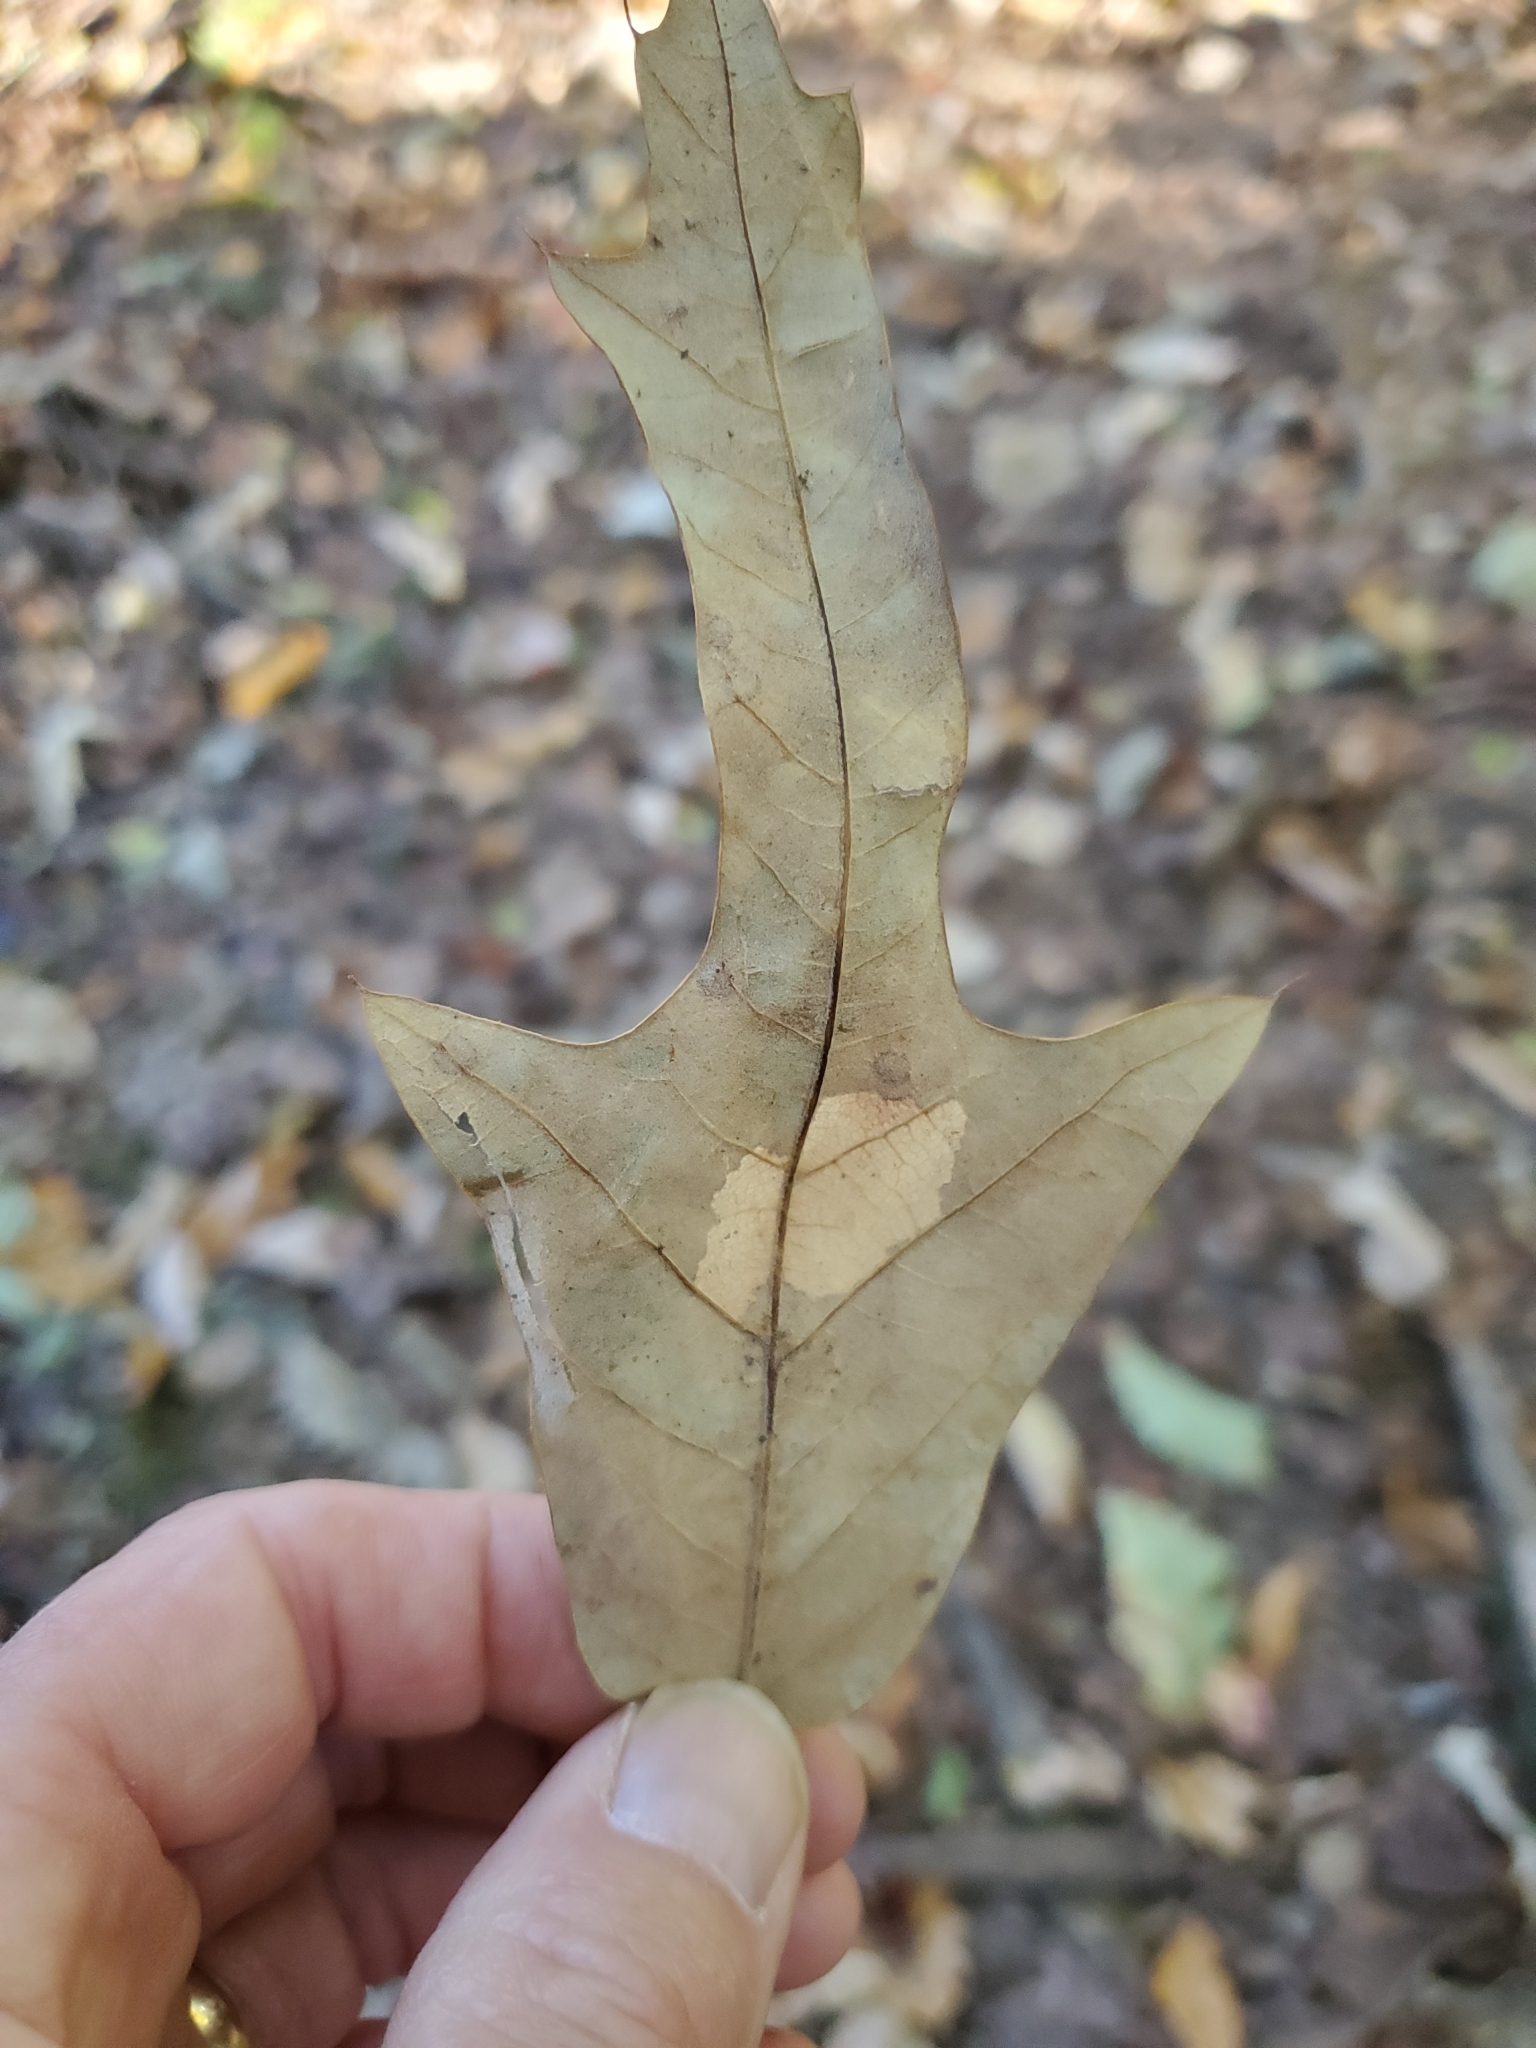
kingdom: Plantae
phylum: Tracheophyta
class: Magnoliopsida
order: Fagales
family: Fagaceae
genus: Quercus
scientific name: Quercus falcata
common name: Southern red oak
